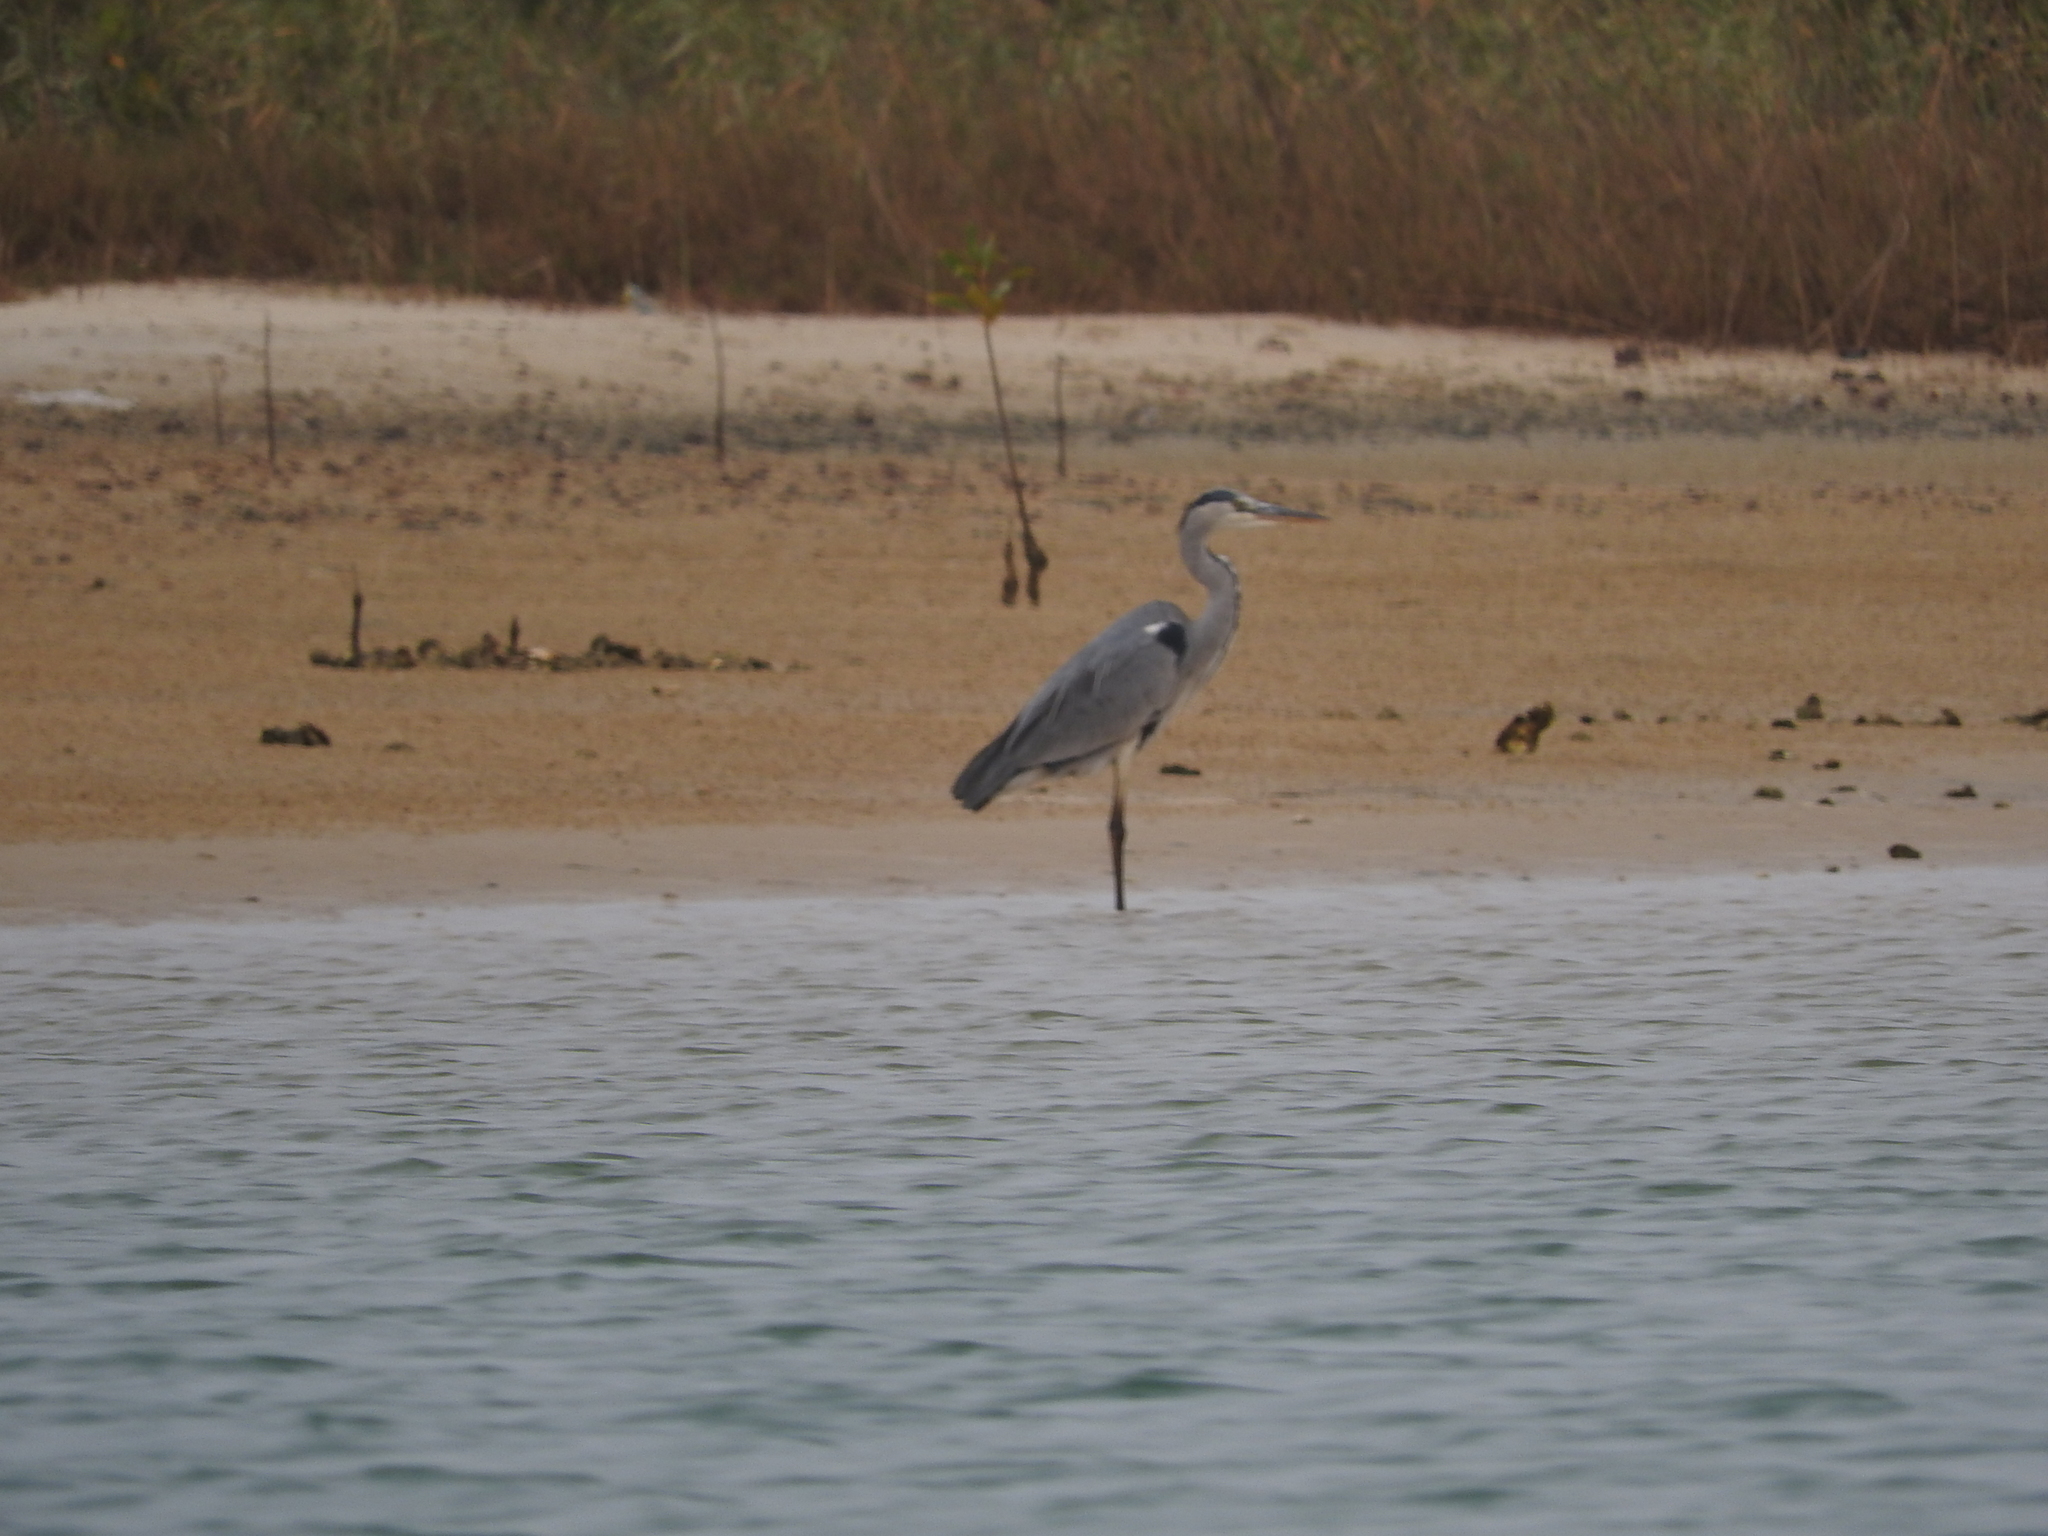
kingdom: Animalia
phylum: Chordata
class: Aves
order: Pelecaniformes
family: Ardeidae
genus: Ardea
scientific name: Ardea cinerea
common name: Grey heron
